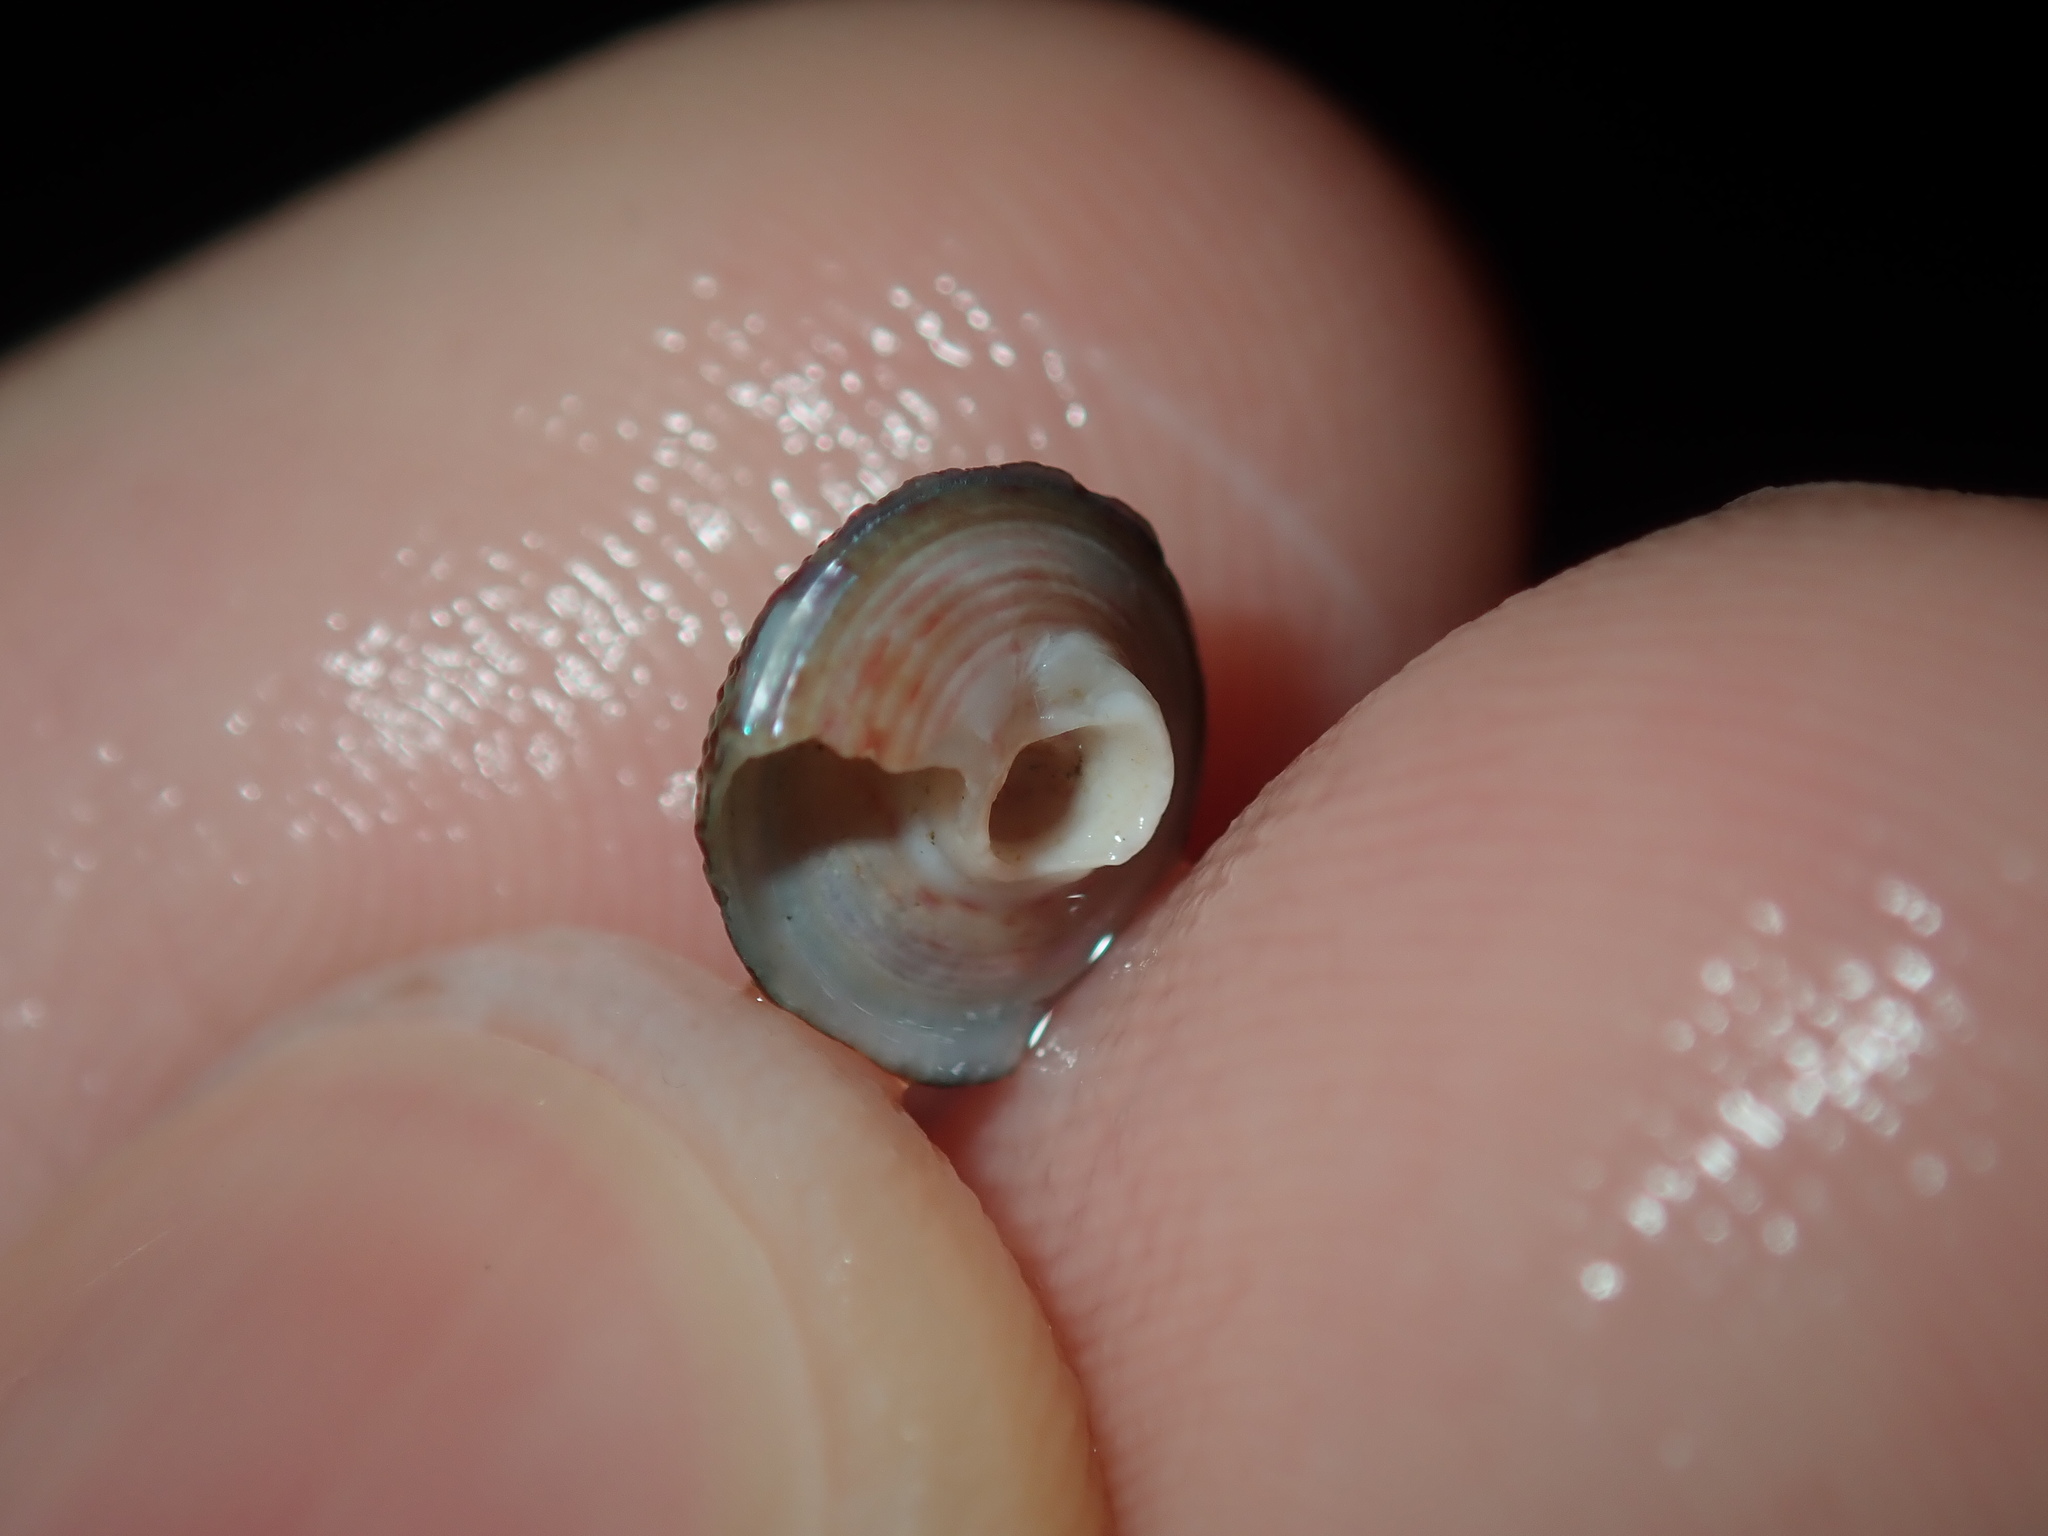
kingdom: Animalia
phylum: Mollusca
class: Gastropoda
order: Trochida
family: Trochidae
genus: Clanculus
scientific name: Clanculus clangulus
